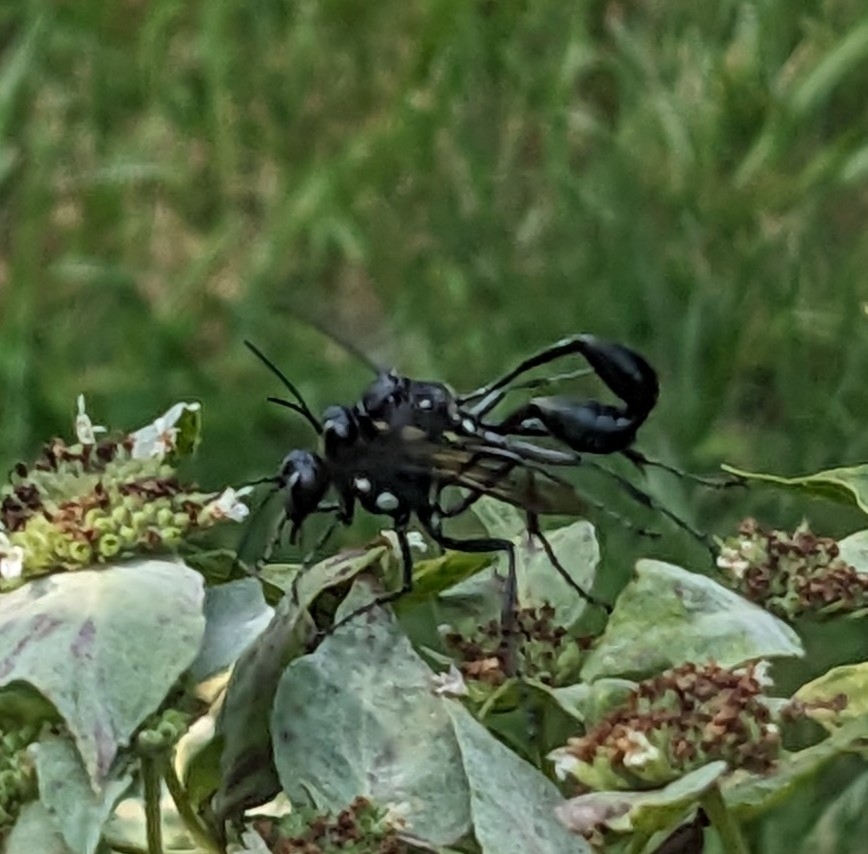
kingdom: Animalia
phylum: Arthropoda
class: Insecta
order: Hymenoptera
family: Sphecidae
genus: Eremnophila
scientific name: Eremnophila aureonotata
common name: Gold-marked thread-waisted wasp
